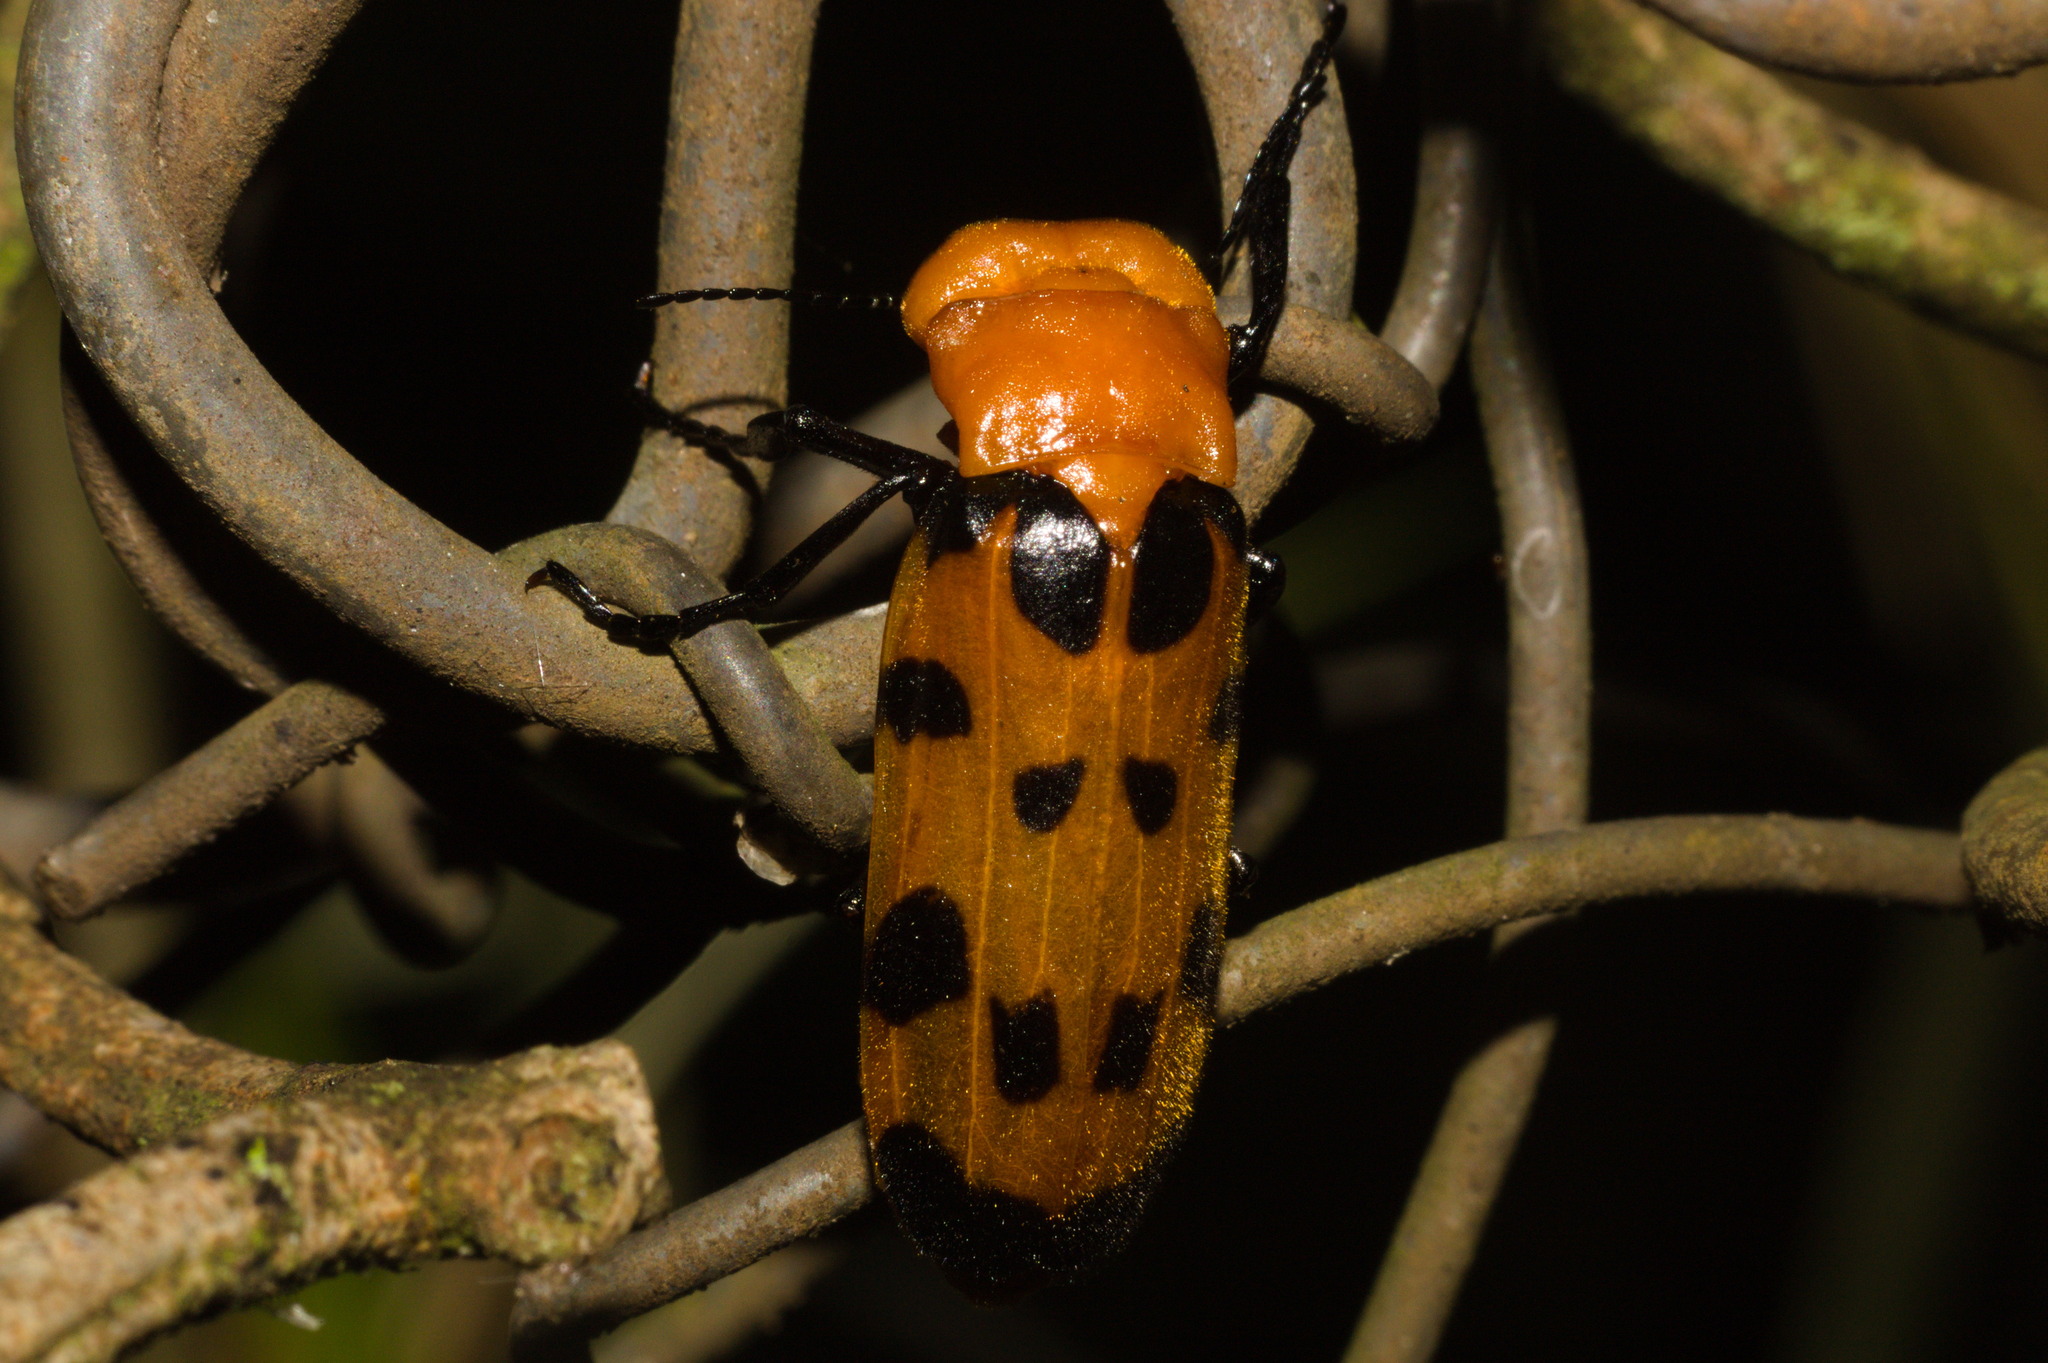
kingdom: Animalia
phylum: Arthropoda
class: Insecta
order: Coleoptera
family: Meloidae
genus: Cissites
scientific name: Cissites maculata
